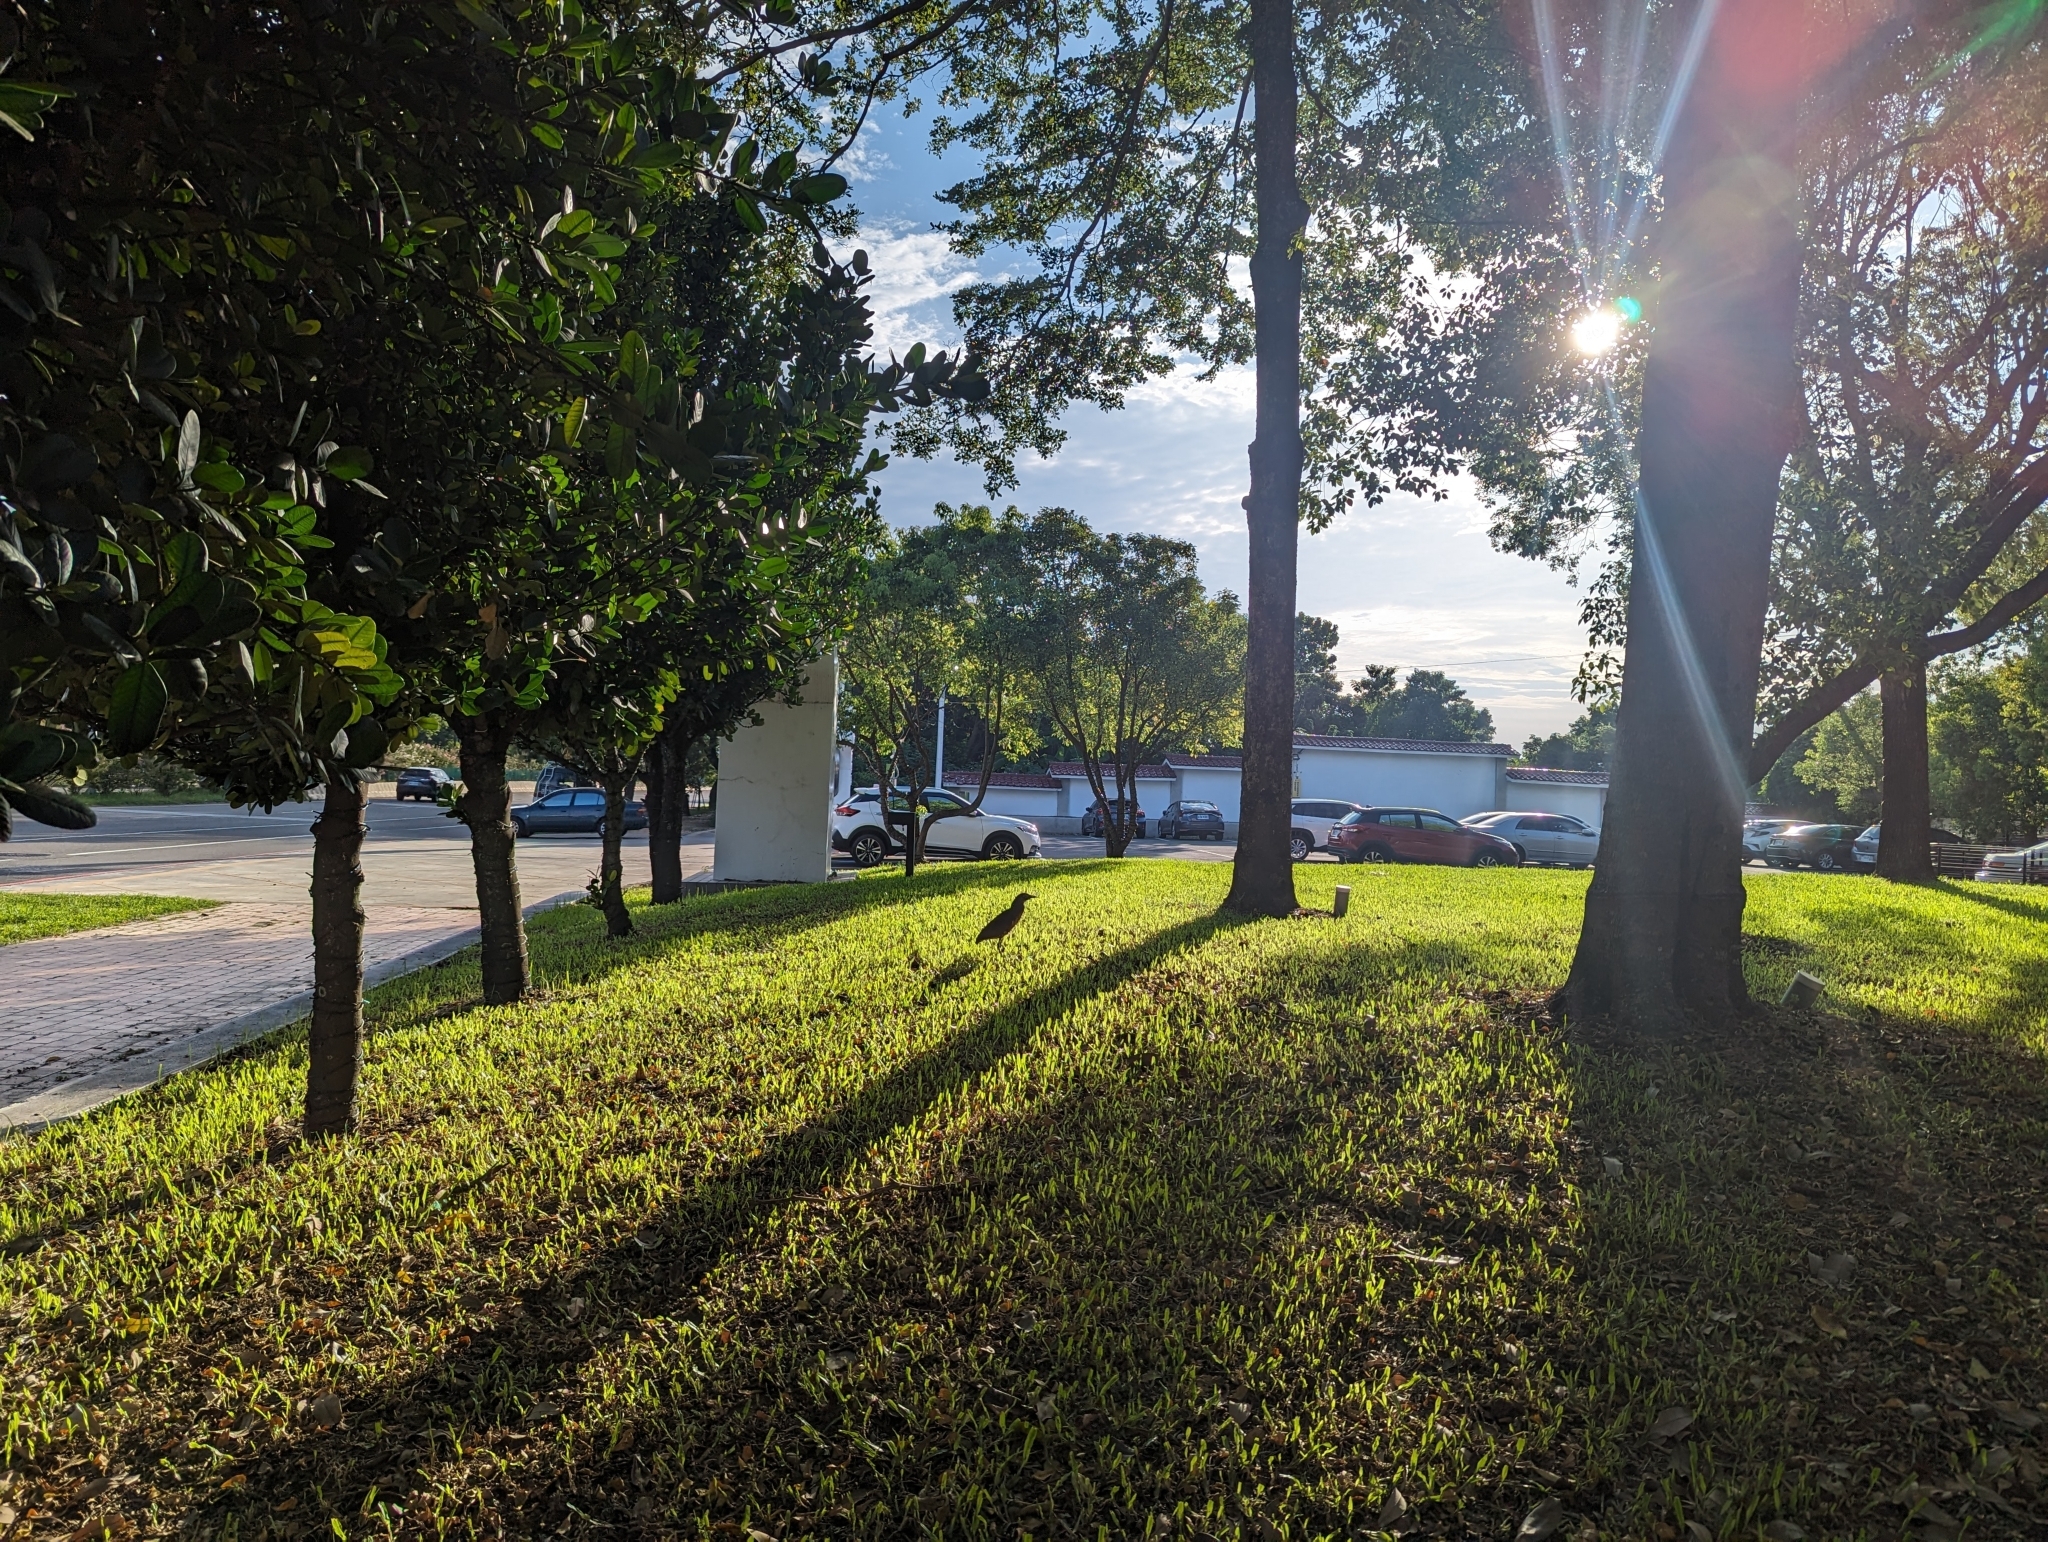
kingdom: Animalia
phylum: Chordata
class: Aves
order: Pelecaniformes
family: Ardeidae
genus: Gorsachius
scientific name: Gorsachius melanolophus
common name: Malayan night heron
